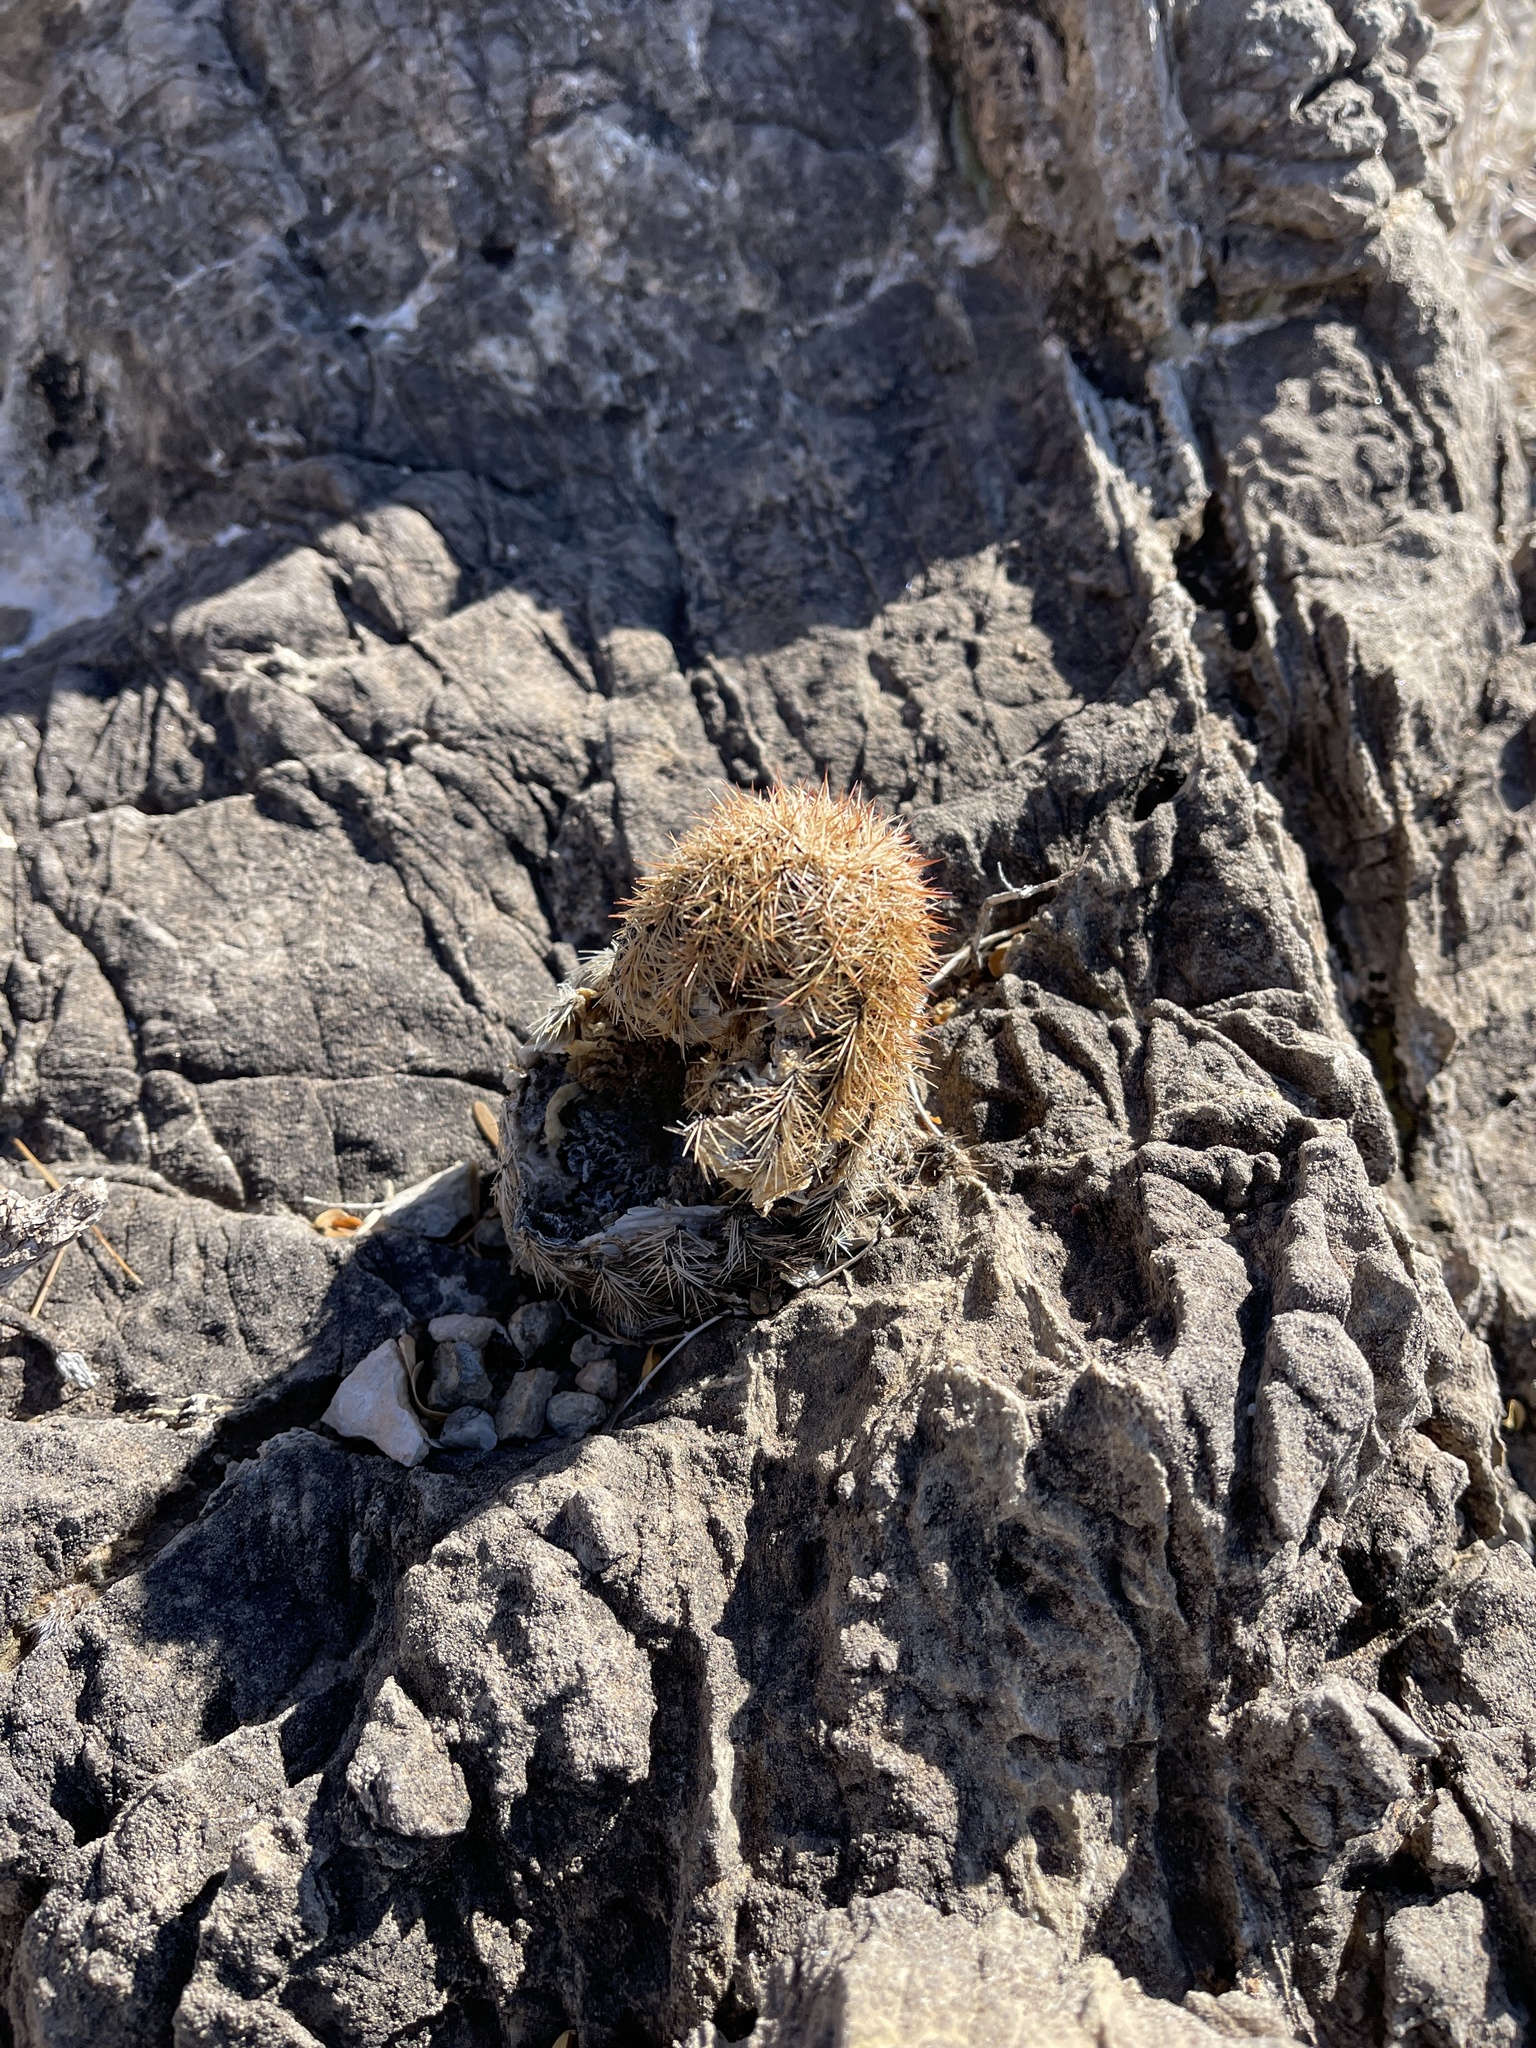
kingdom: Plantae
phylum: Tracheophyta
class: Magnoliopsida
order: Caryophyllales
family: Cactaceae
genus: Echinocereus
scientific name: Echinocereus dasyacanthus
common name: Spiny hedgehog cactus
